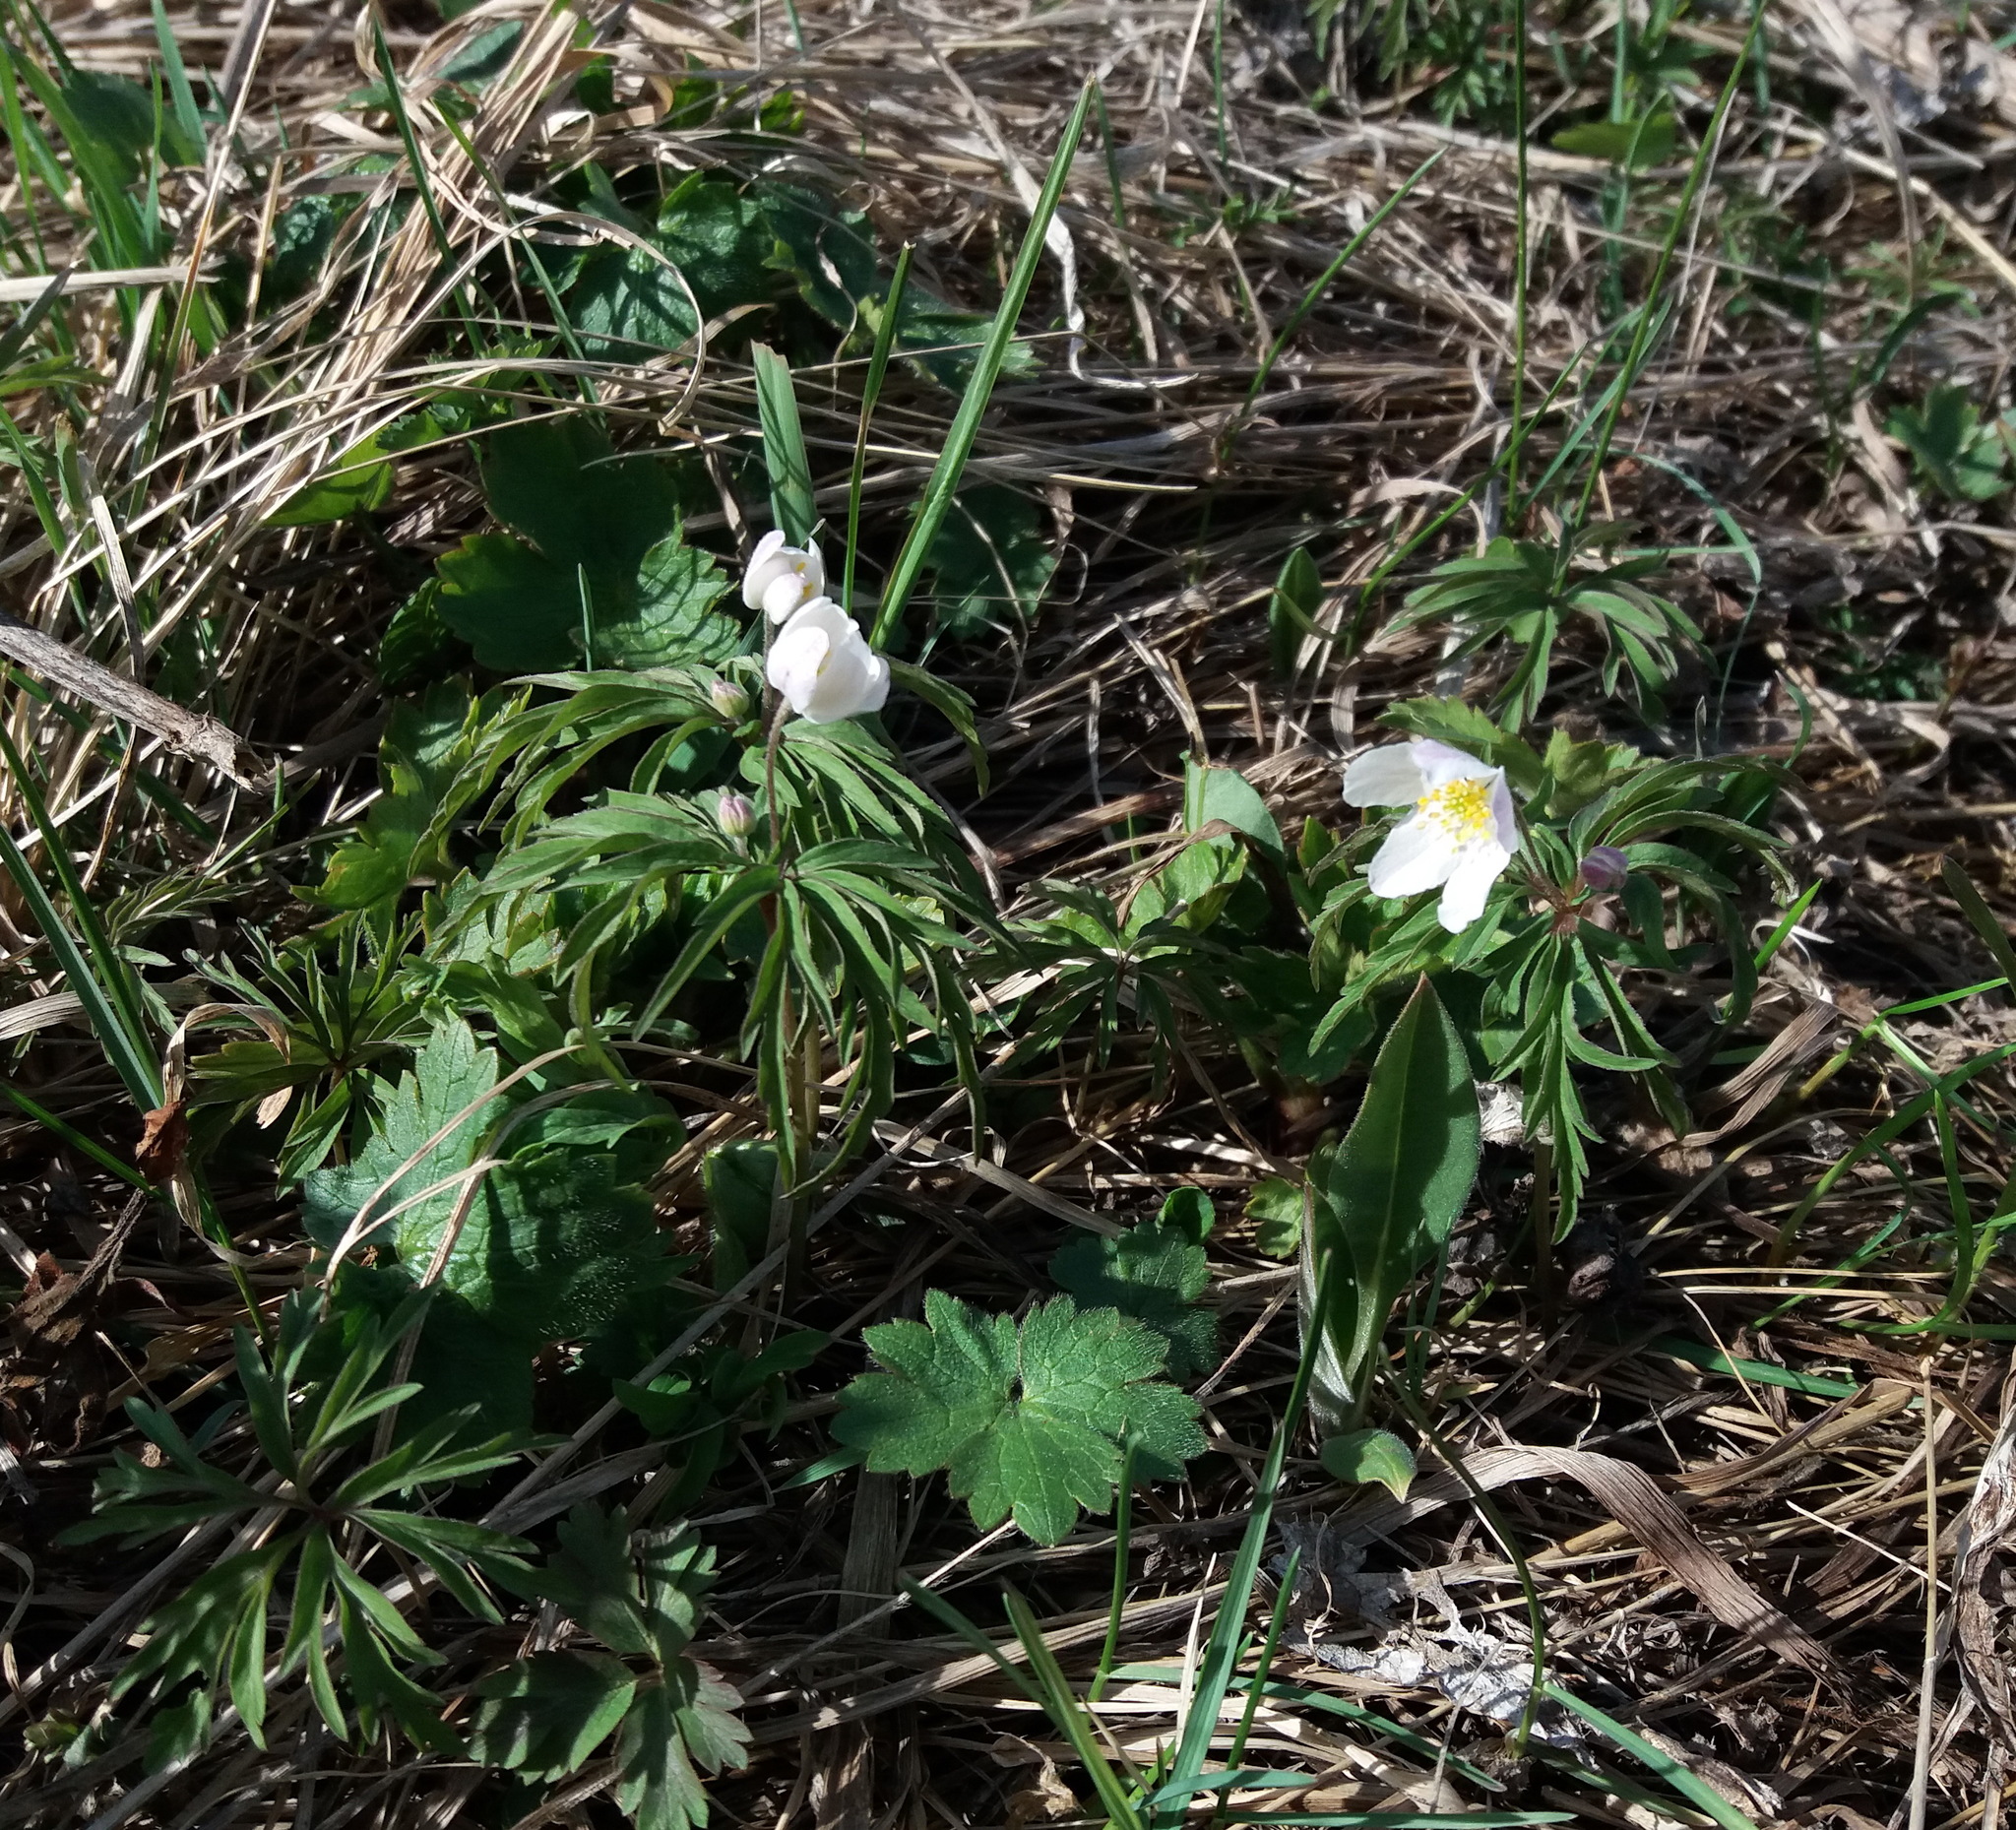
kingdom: Plantae
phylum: Tracheophyta
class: Magnoliopsida
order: Ranunculales
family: Ranunculaceae
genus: Anemone
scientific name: Anemone caerulea
